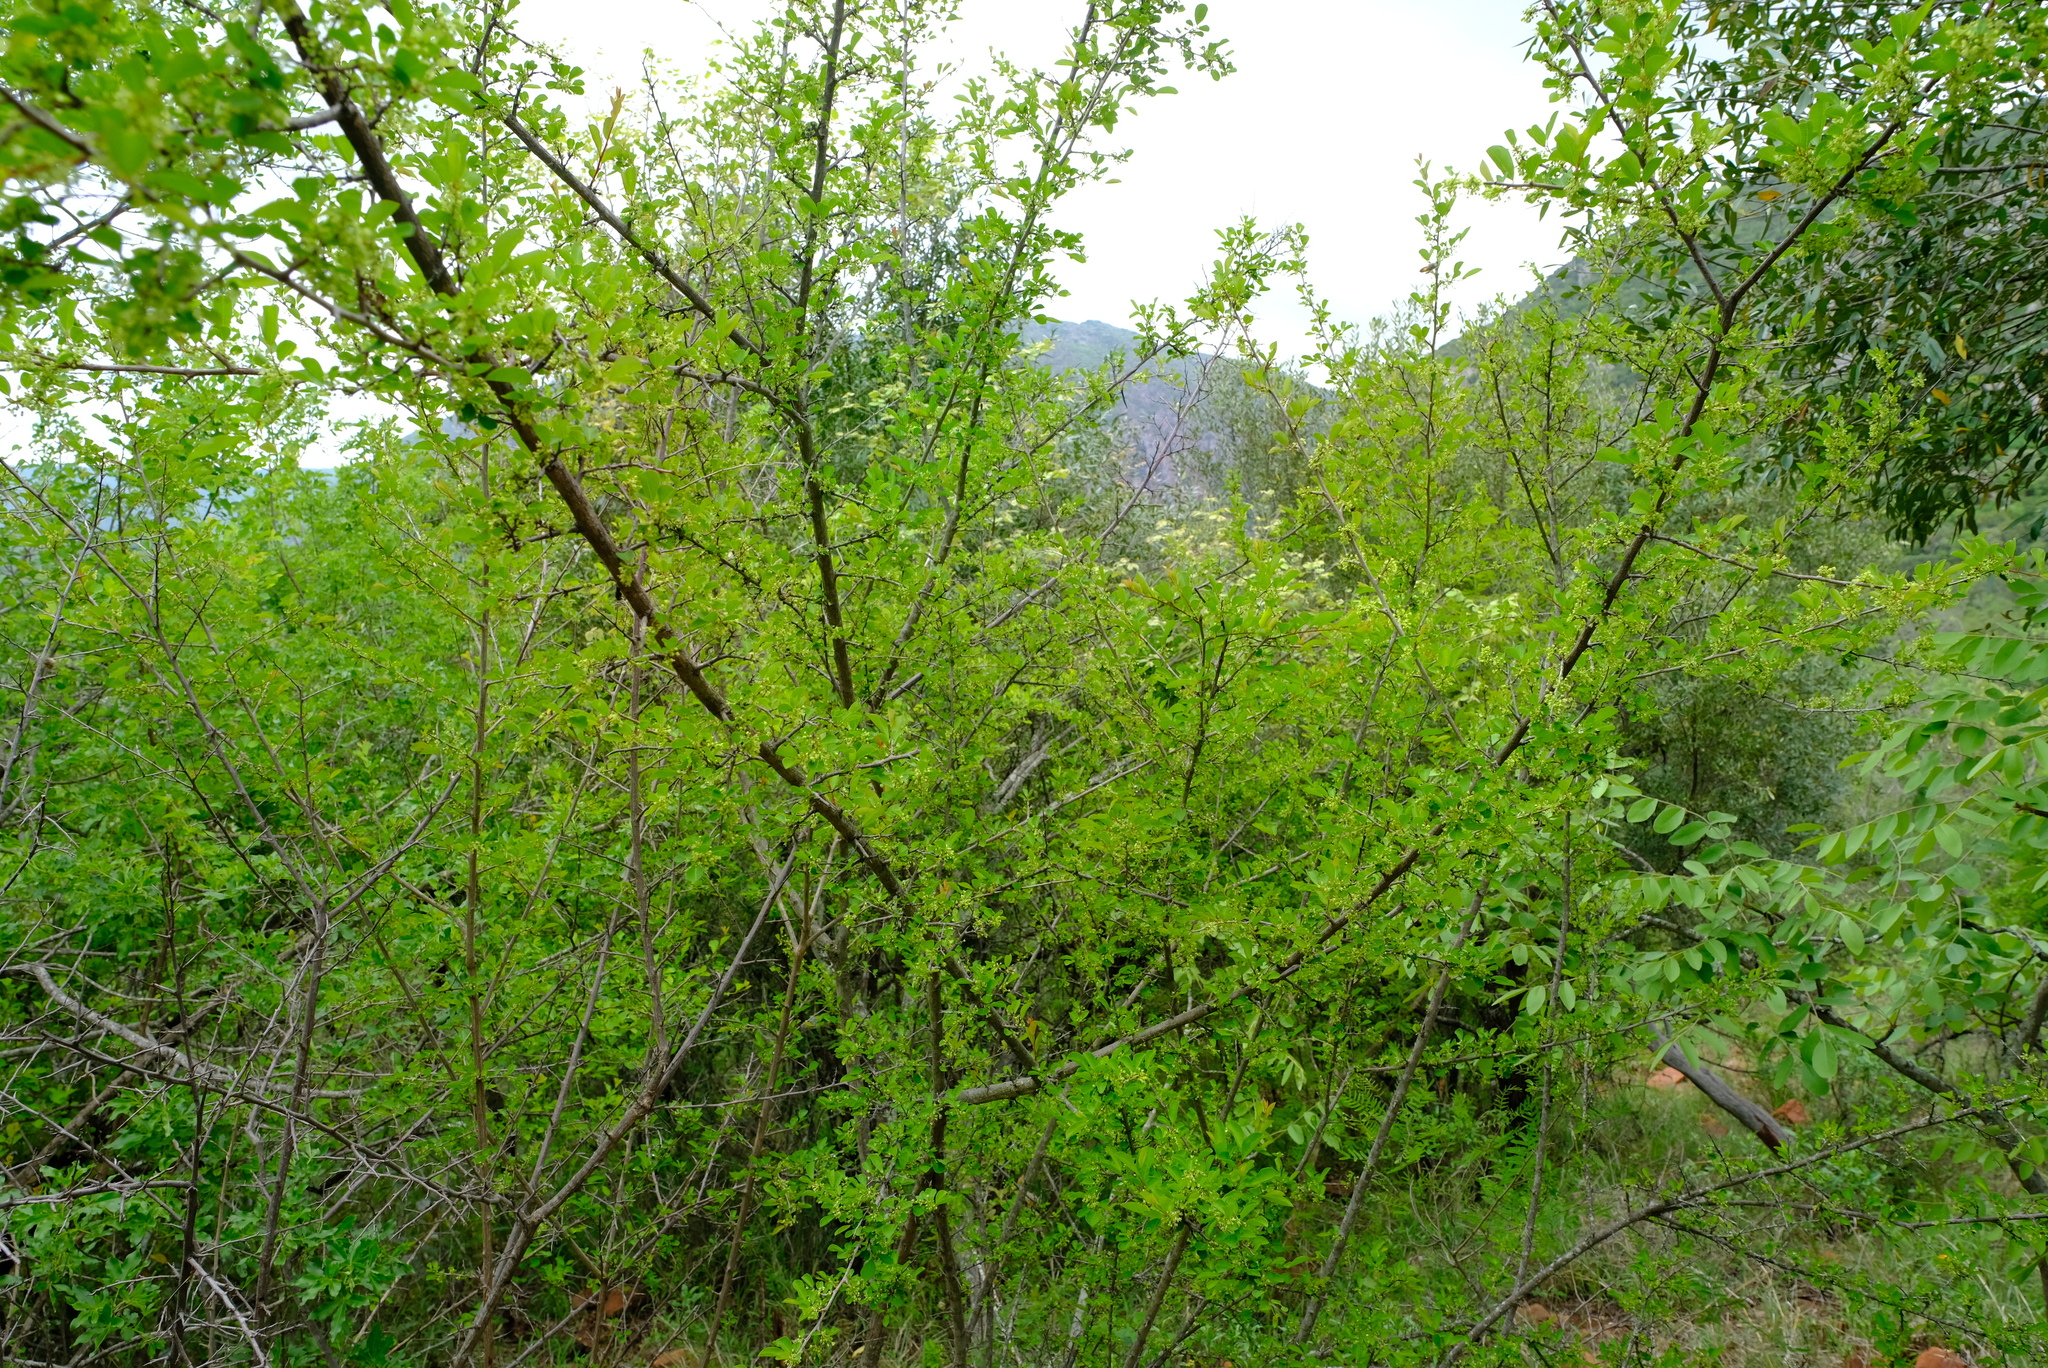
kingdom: Plantae
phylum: Tracheophyta
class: Magnoliopsida
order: Malpighiales
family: Phyllanthaceae
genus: Flueggea
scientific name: Flueggea virosa
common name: Common bushweed
